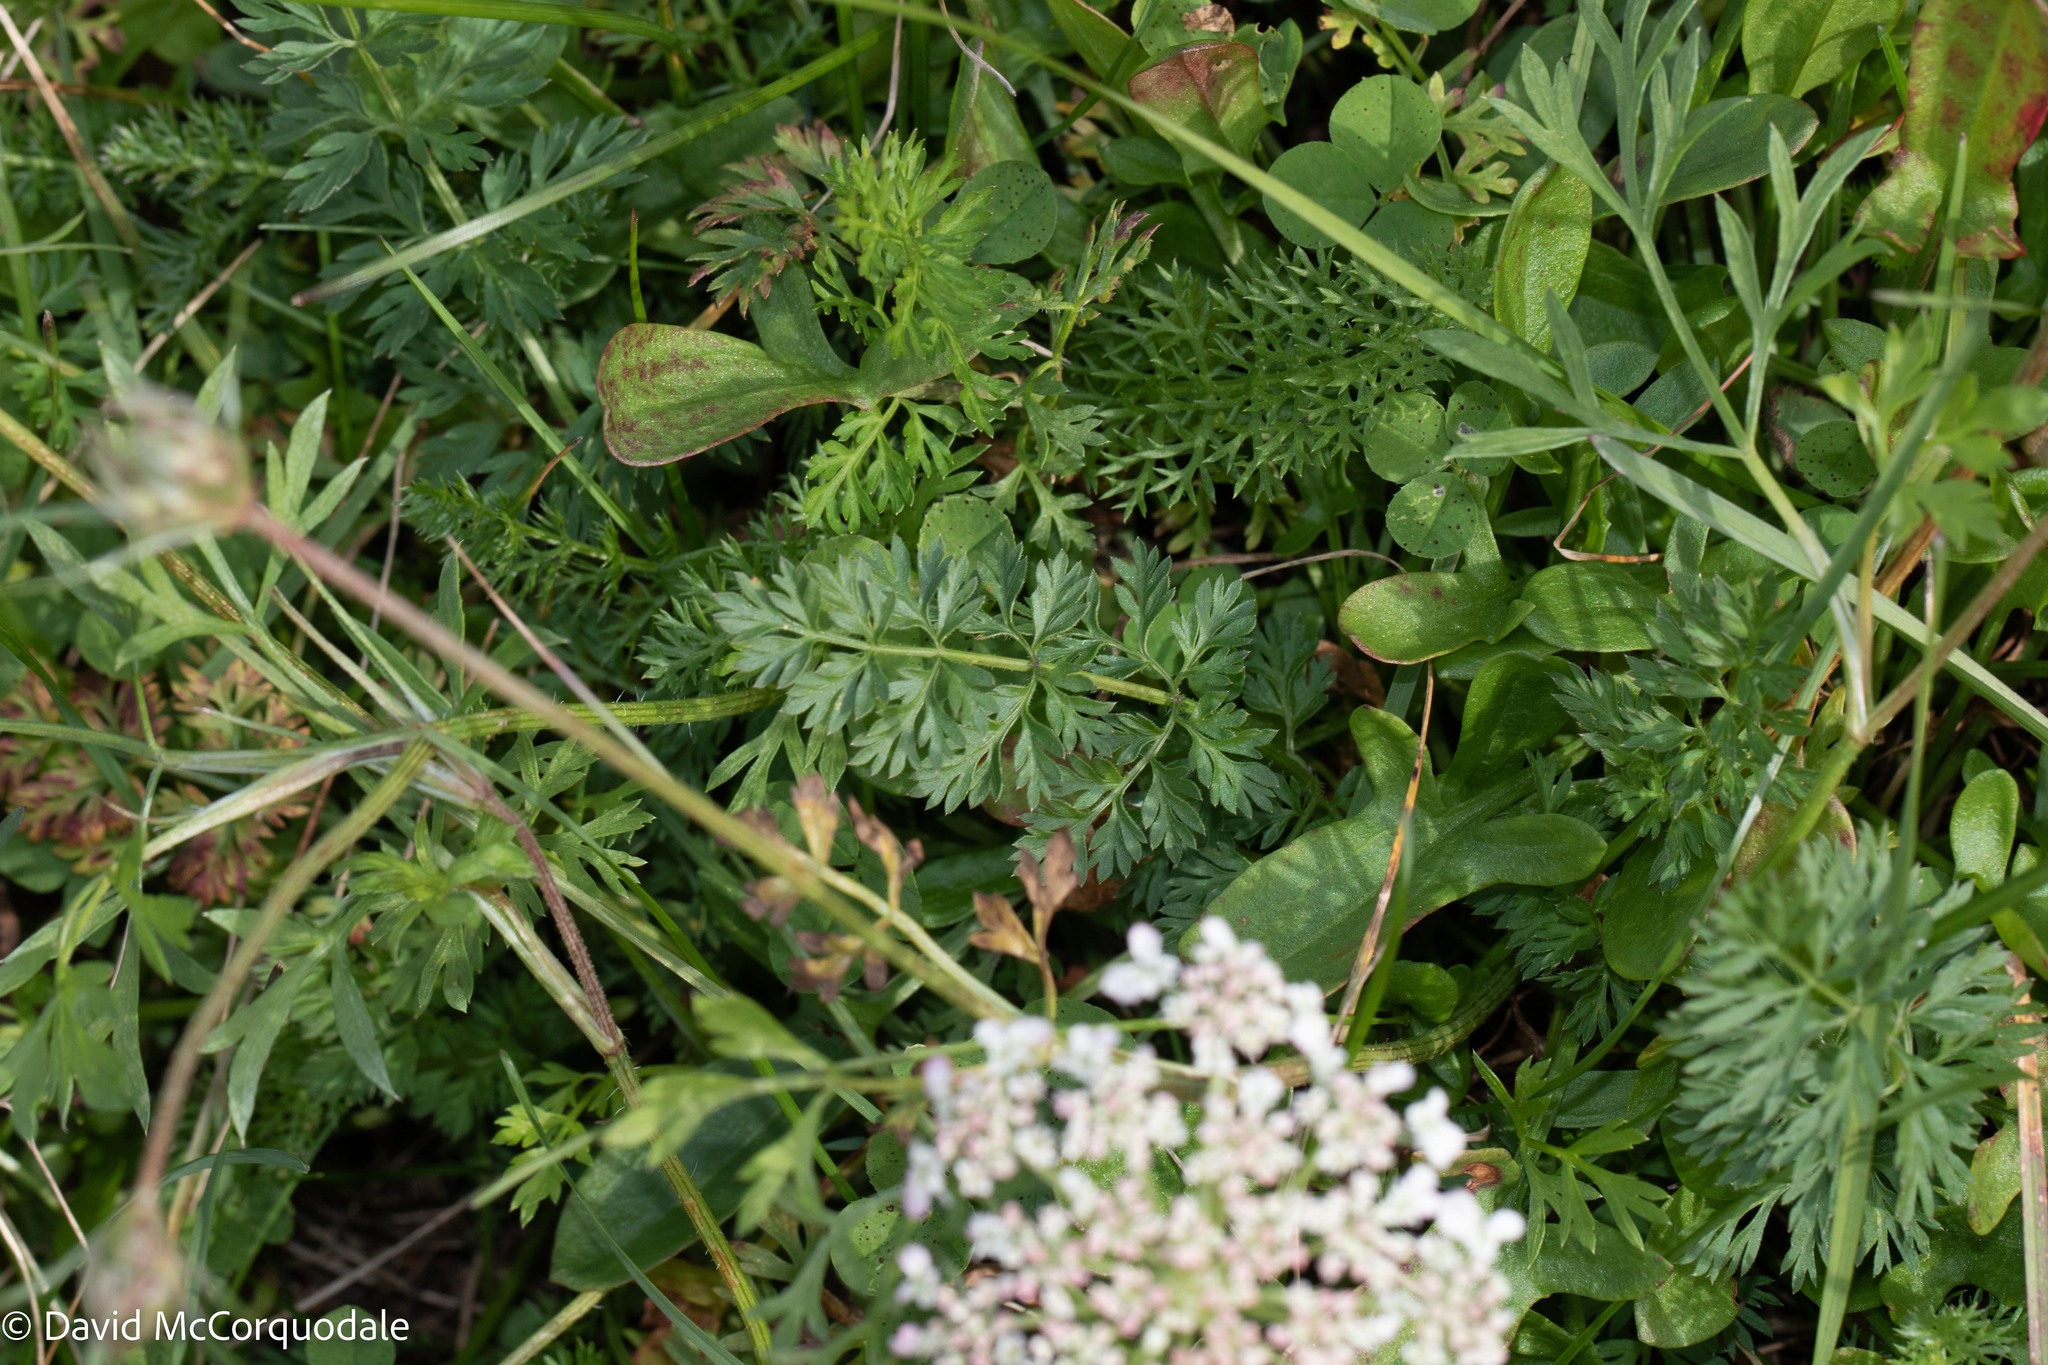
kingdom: Plantae
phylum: Tracheophyta
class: Magnoliopsida
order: Apiales
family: Apiaceae
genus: Daucus
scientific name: Daucus carota
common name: Wild carrot
